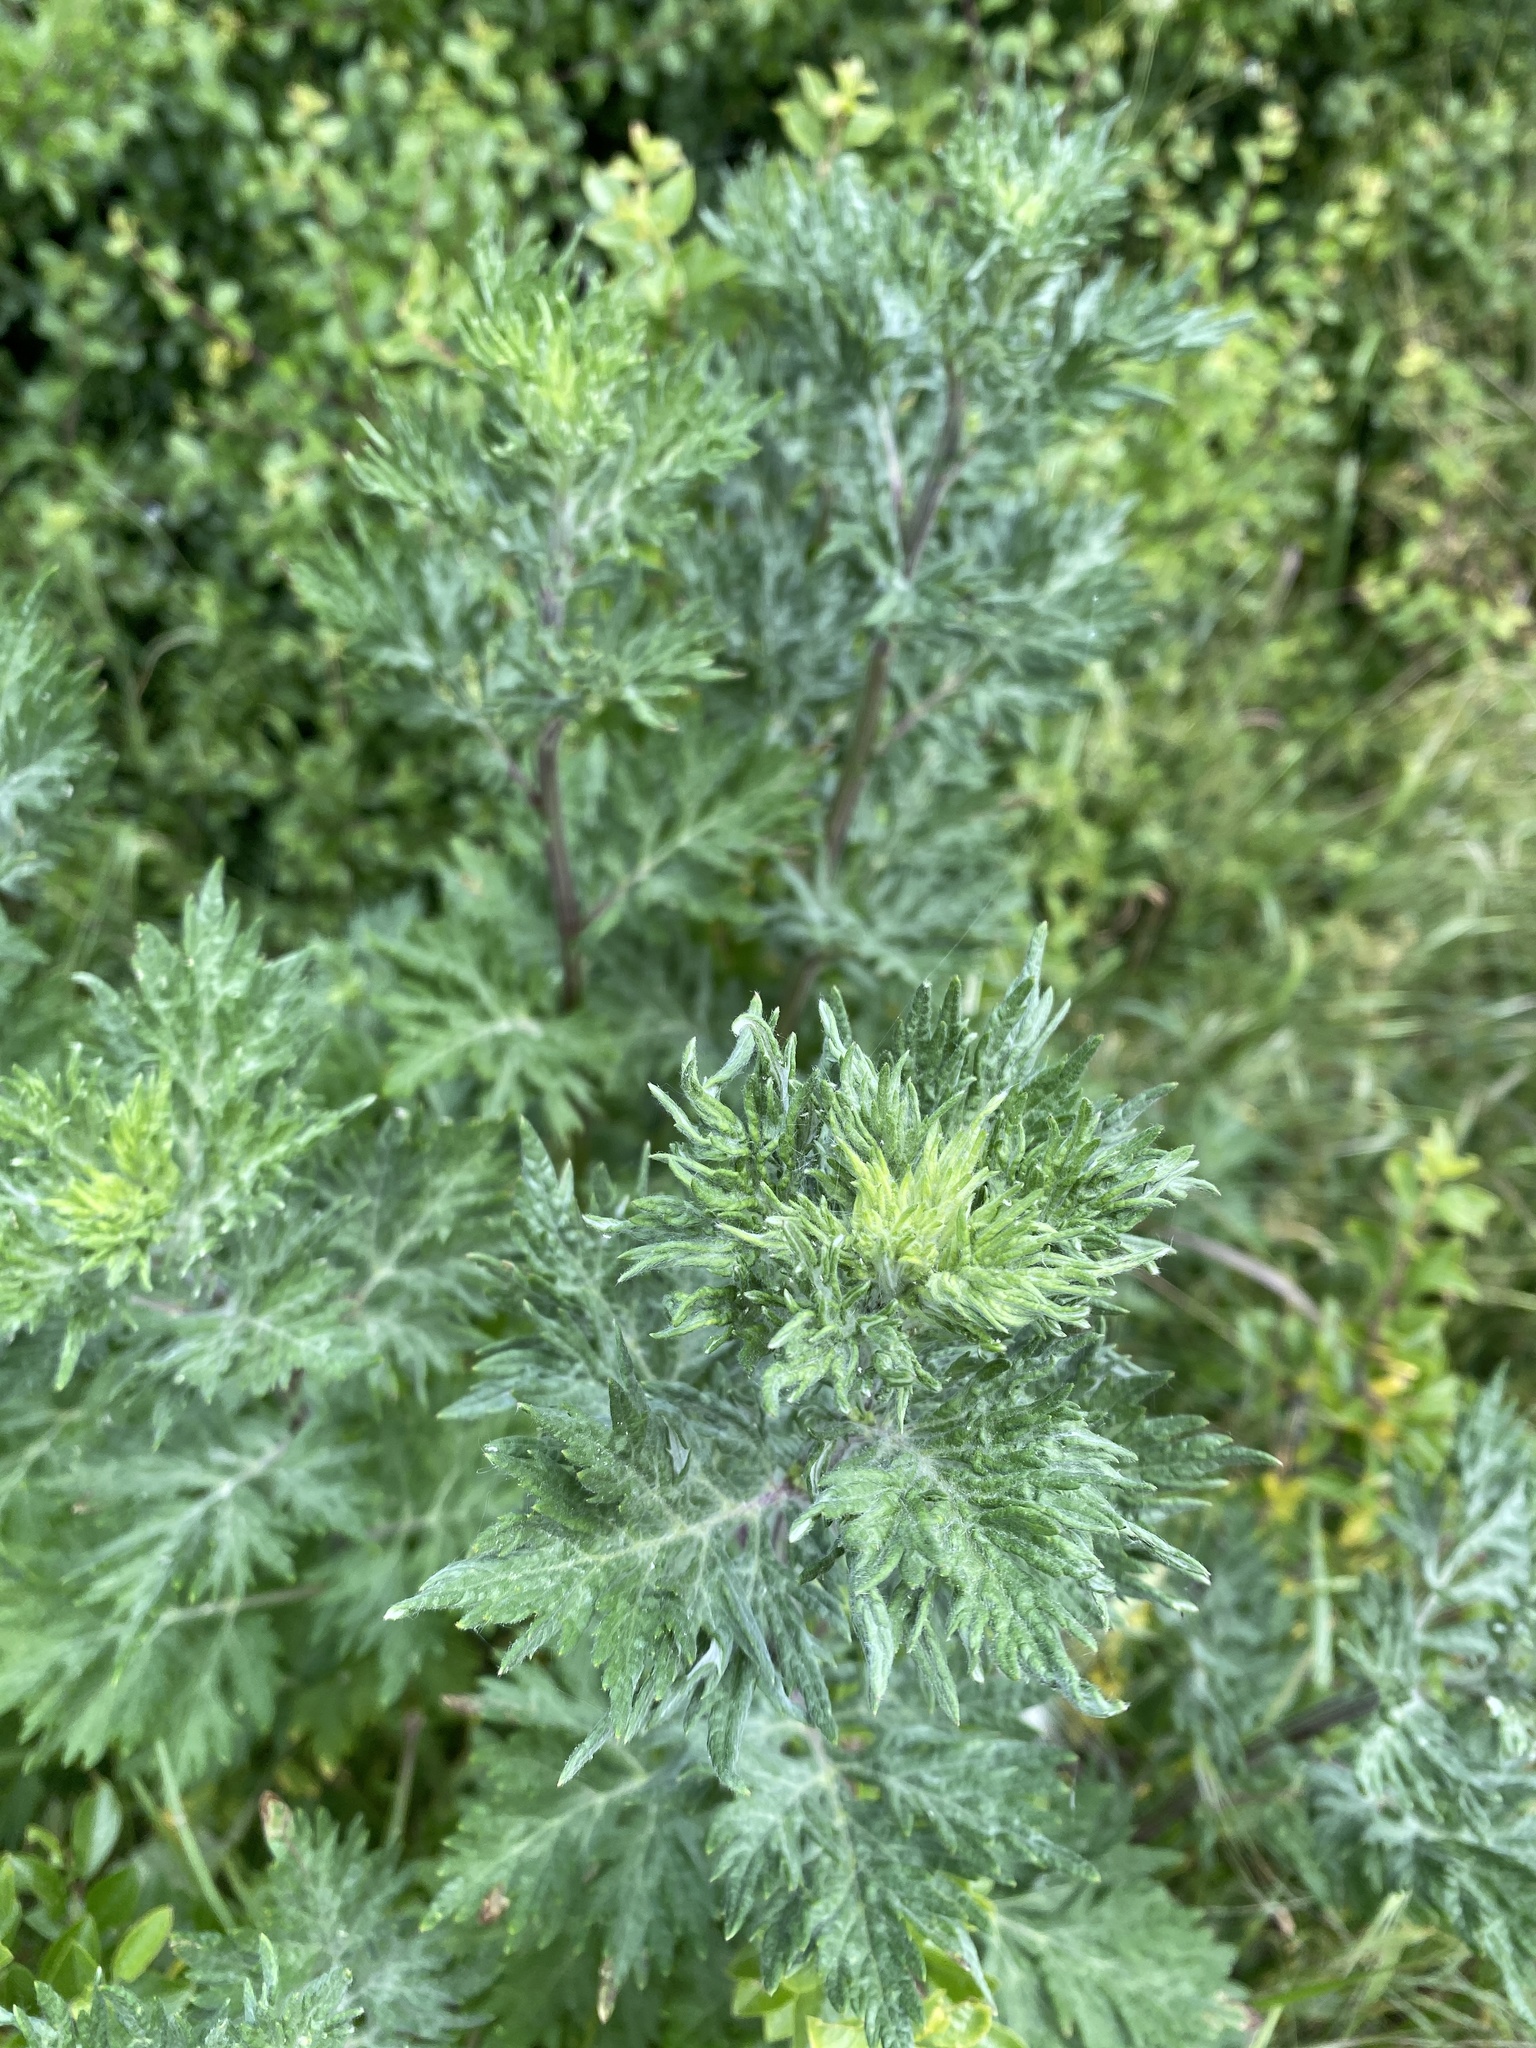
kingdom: Plantae
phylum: Tracheophyta
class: Magnoliopsida
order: Asterales
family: Asteraceae
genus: Artemisia
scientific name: Artemisia vulgaris
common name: Mugwort
